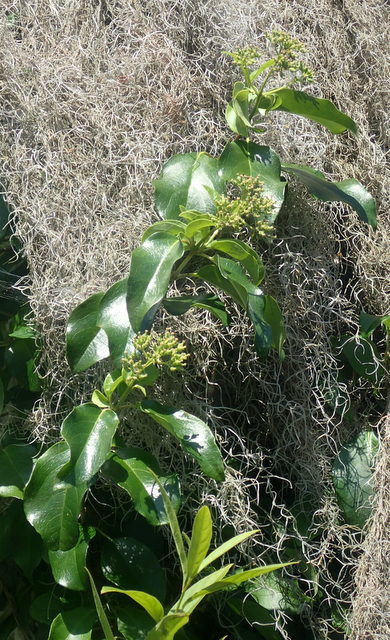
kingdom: Plantae
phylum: Tracheophyta
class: Magnoliopsida
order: Cornales
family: Hydrangeaceae
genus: Hydrangea
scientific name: Hydrangea barbara
